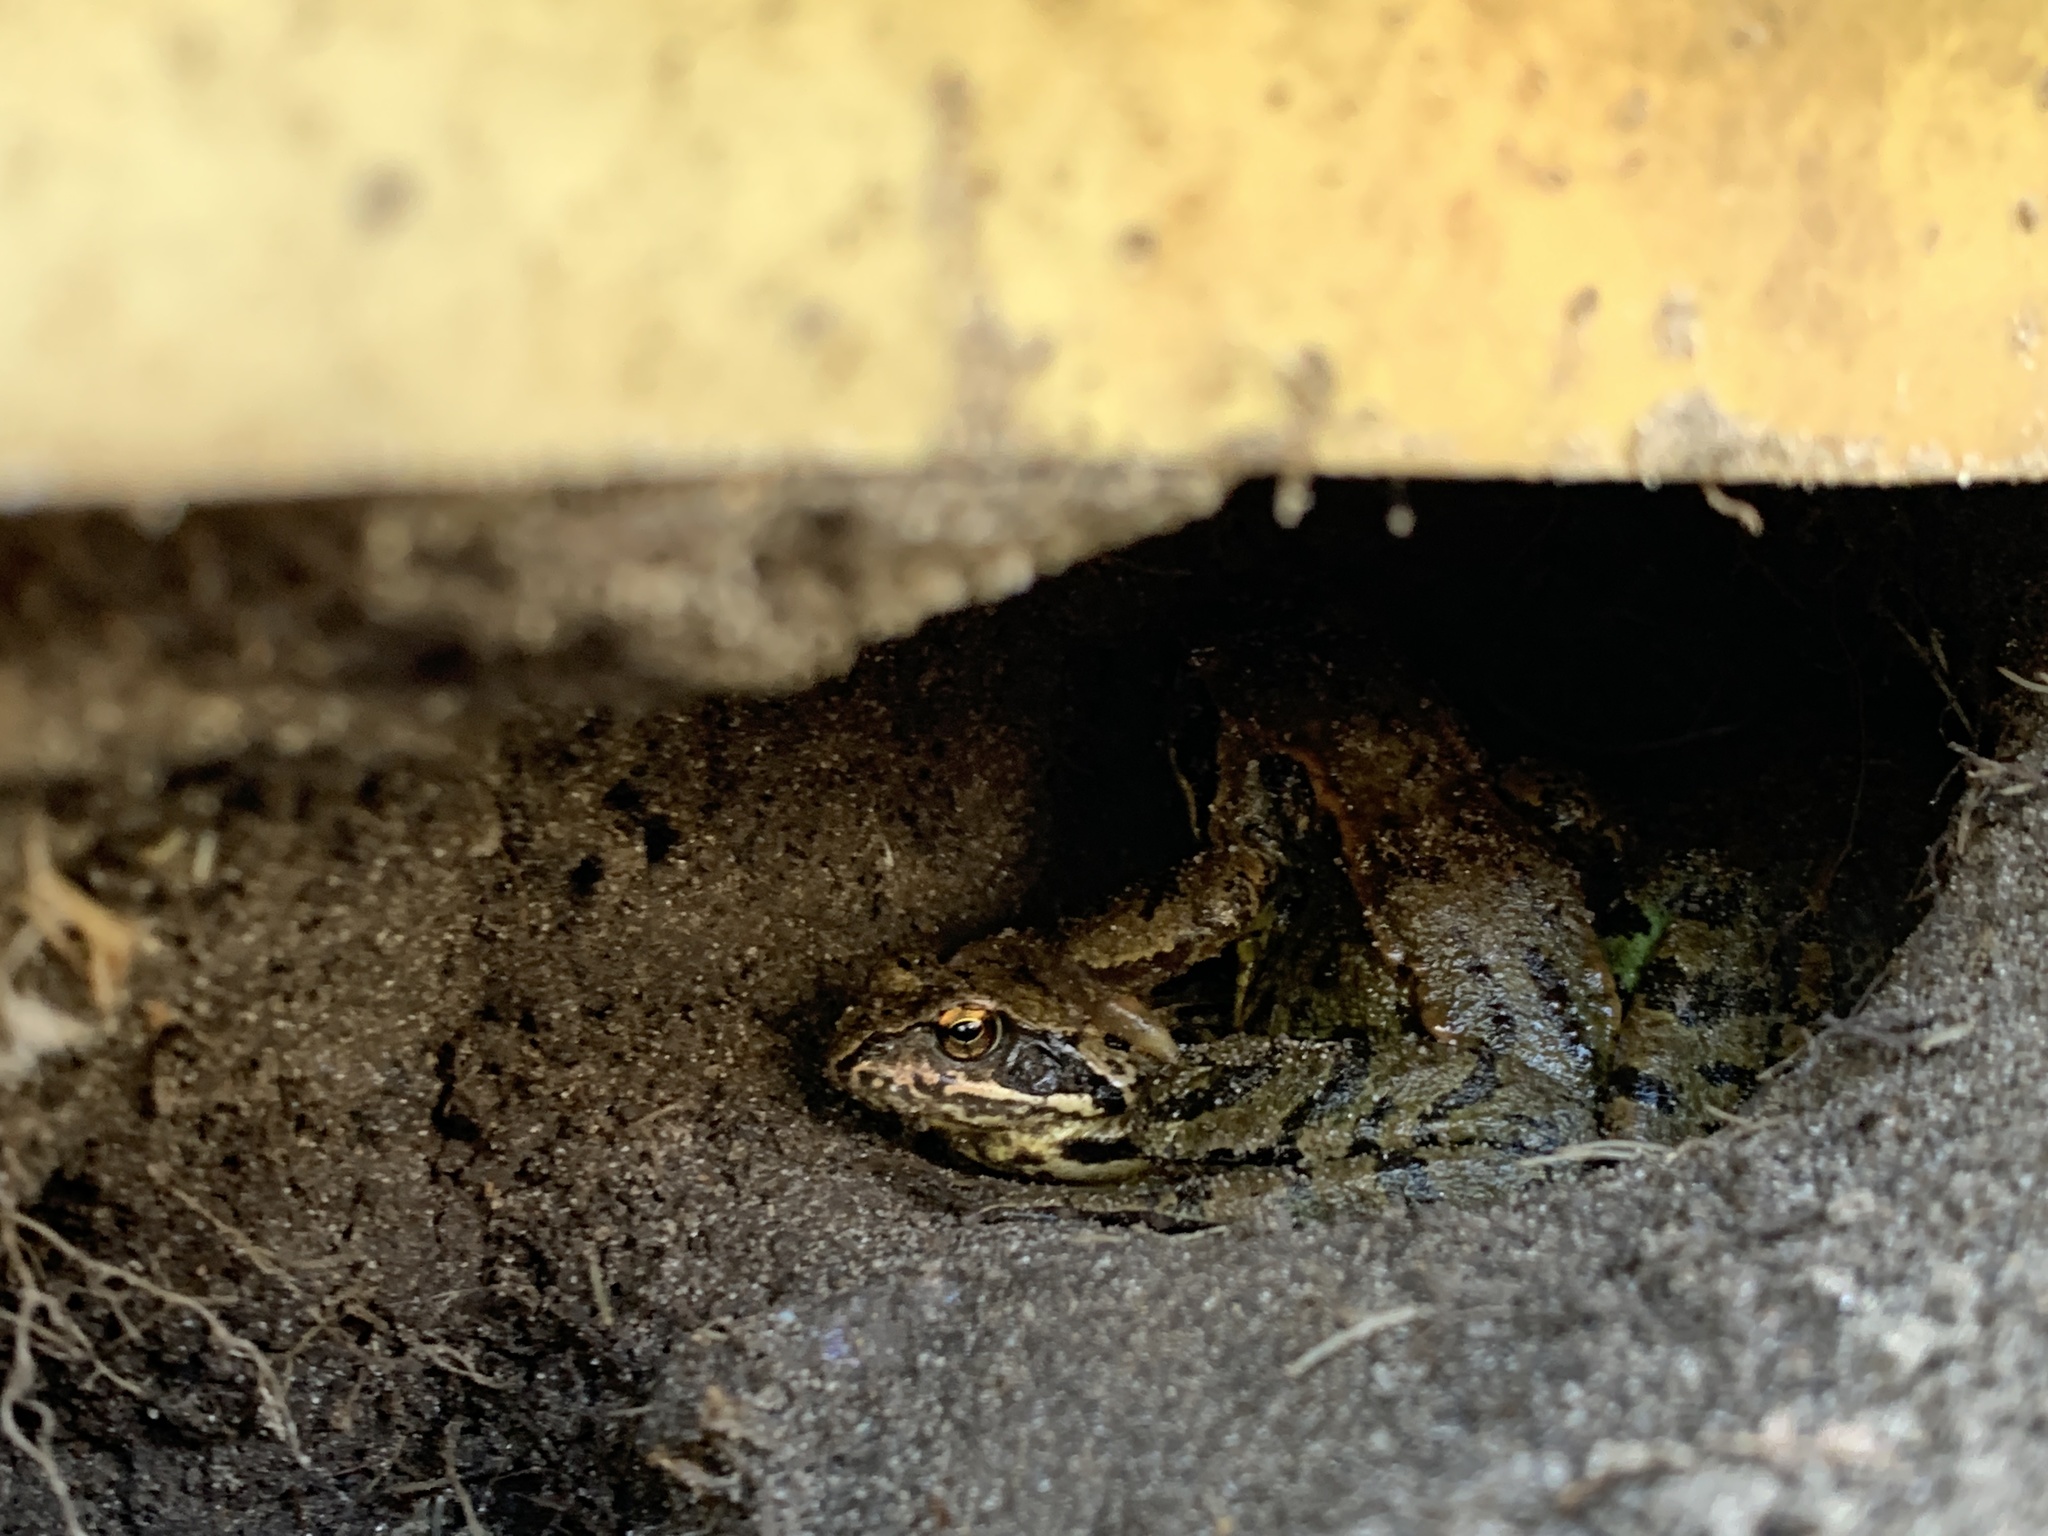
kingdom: Animalia
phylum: Chordata
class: Amphibia
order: Anura
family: Ranidae
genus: Rana
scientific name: Rana temporaria
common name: Common frog
